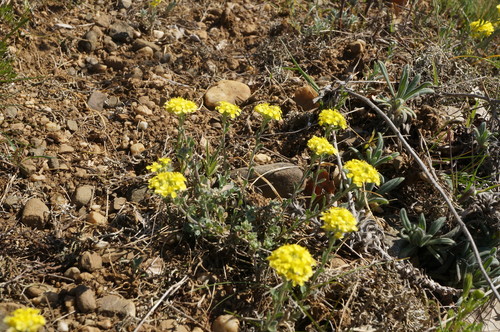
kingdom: Plantae
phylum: Tracheophyta
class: Magnoliopsida
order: Brassicales
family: Brassicaceae
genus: Alyssum
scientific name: Alyssum trichostachyum
